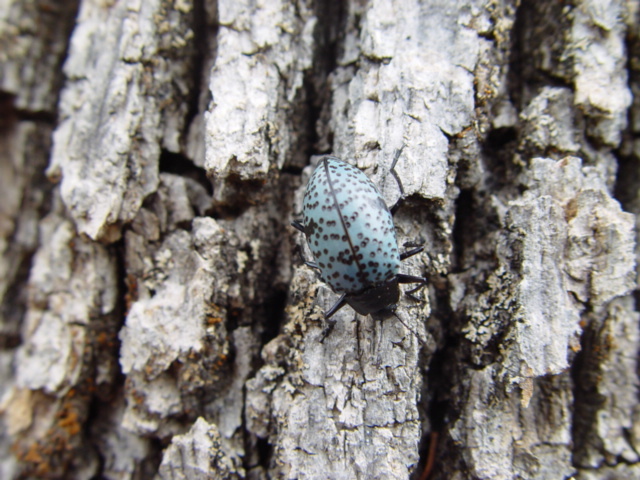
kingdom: Animalia
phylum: Arthropoda
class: Insecta
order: Coleoptera
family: Erotylidae
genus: Gibbifer
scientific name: Gibbifer californicus
